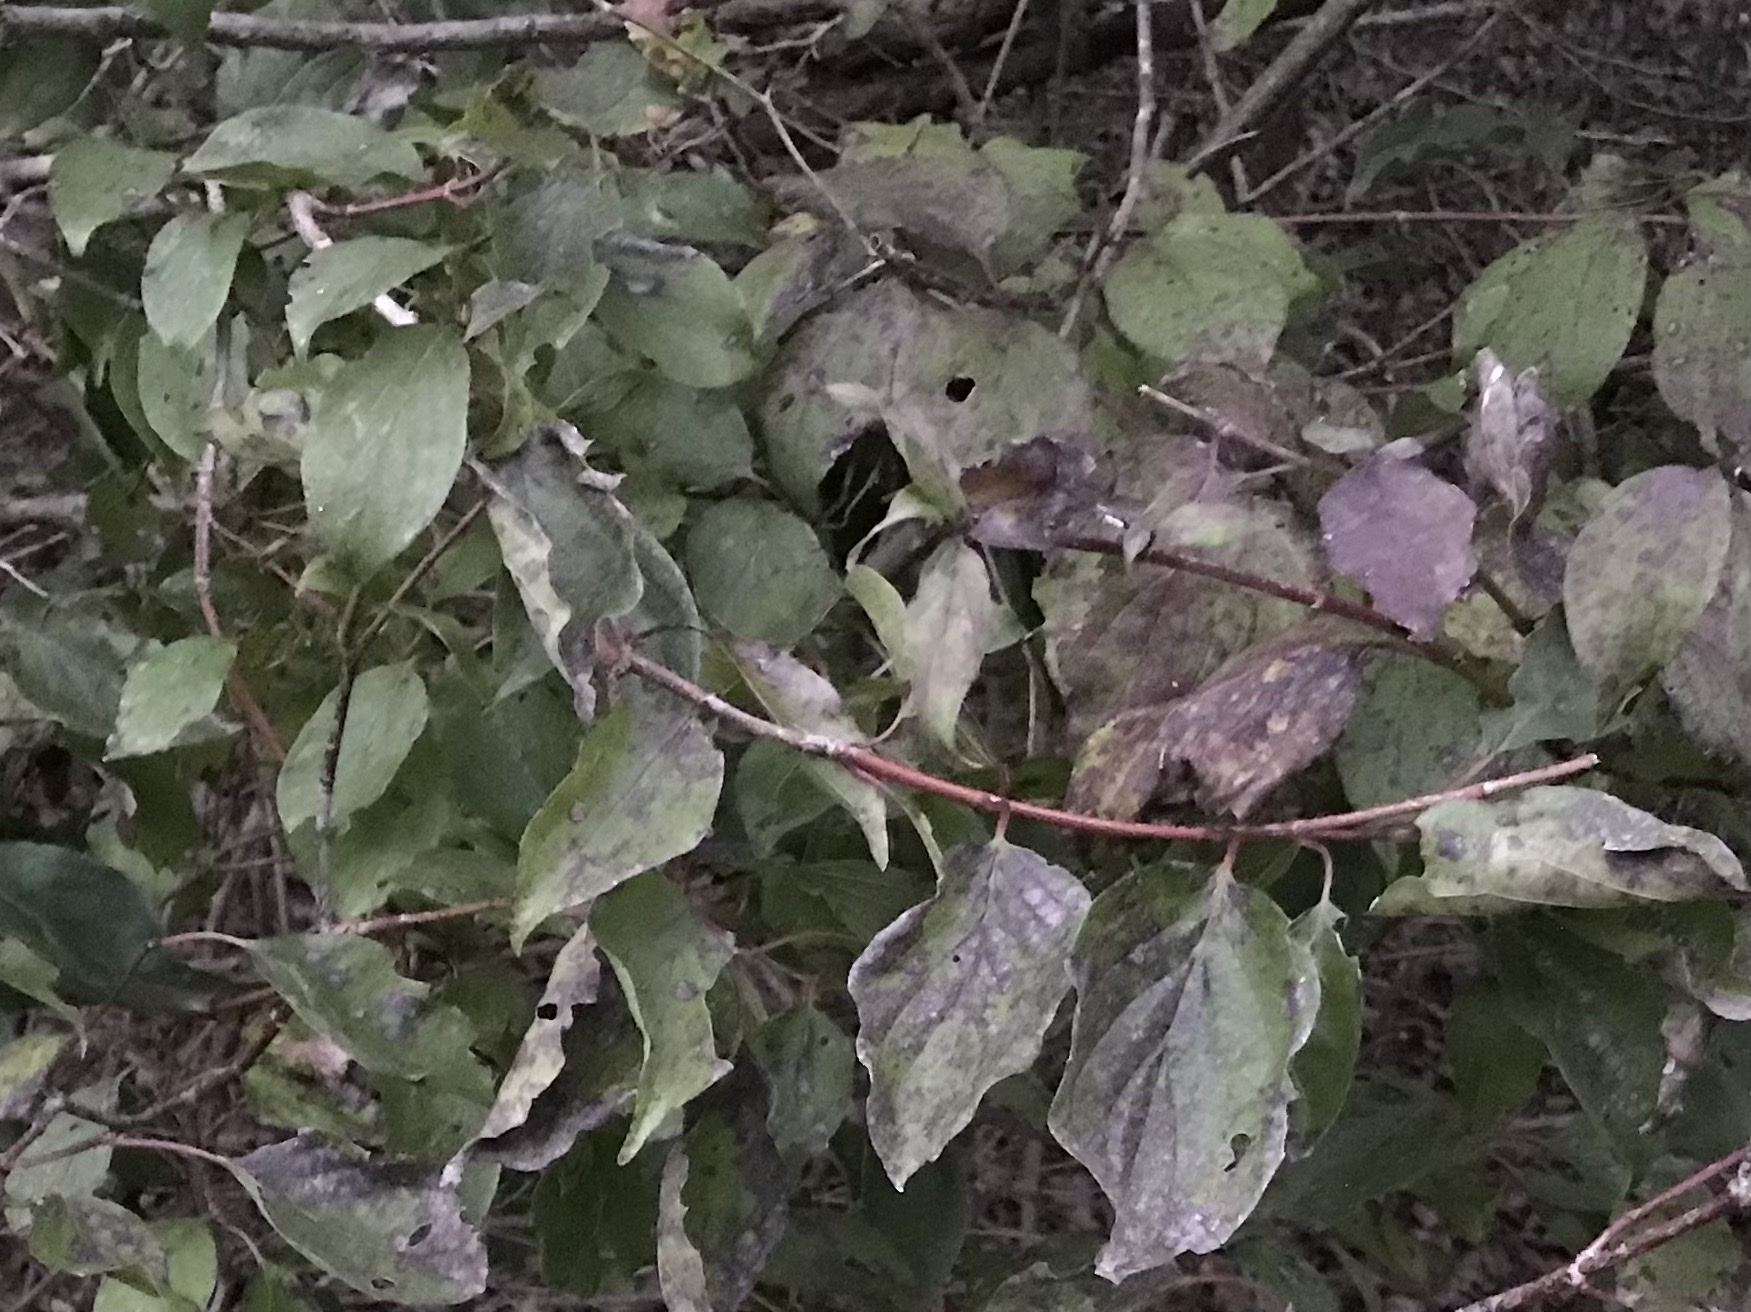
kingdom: Plantae
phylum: Tracheophyta
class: Magnoliopsida
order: Cornales
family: Cornaceae
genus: Cornus
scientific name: Cornus drummondii
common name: Rough-leaf dogwood
